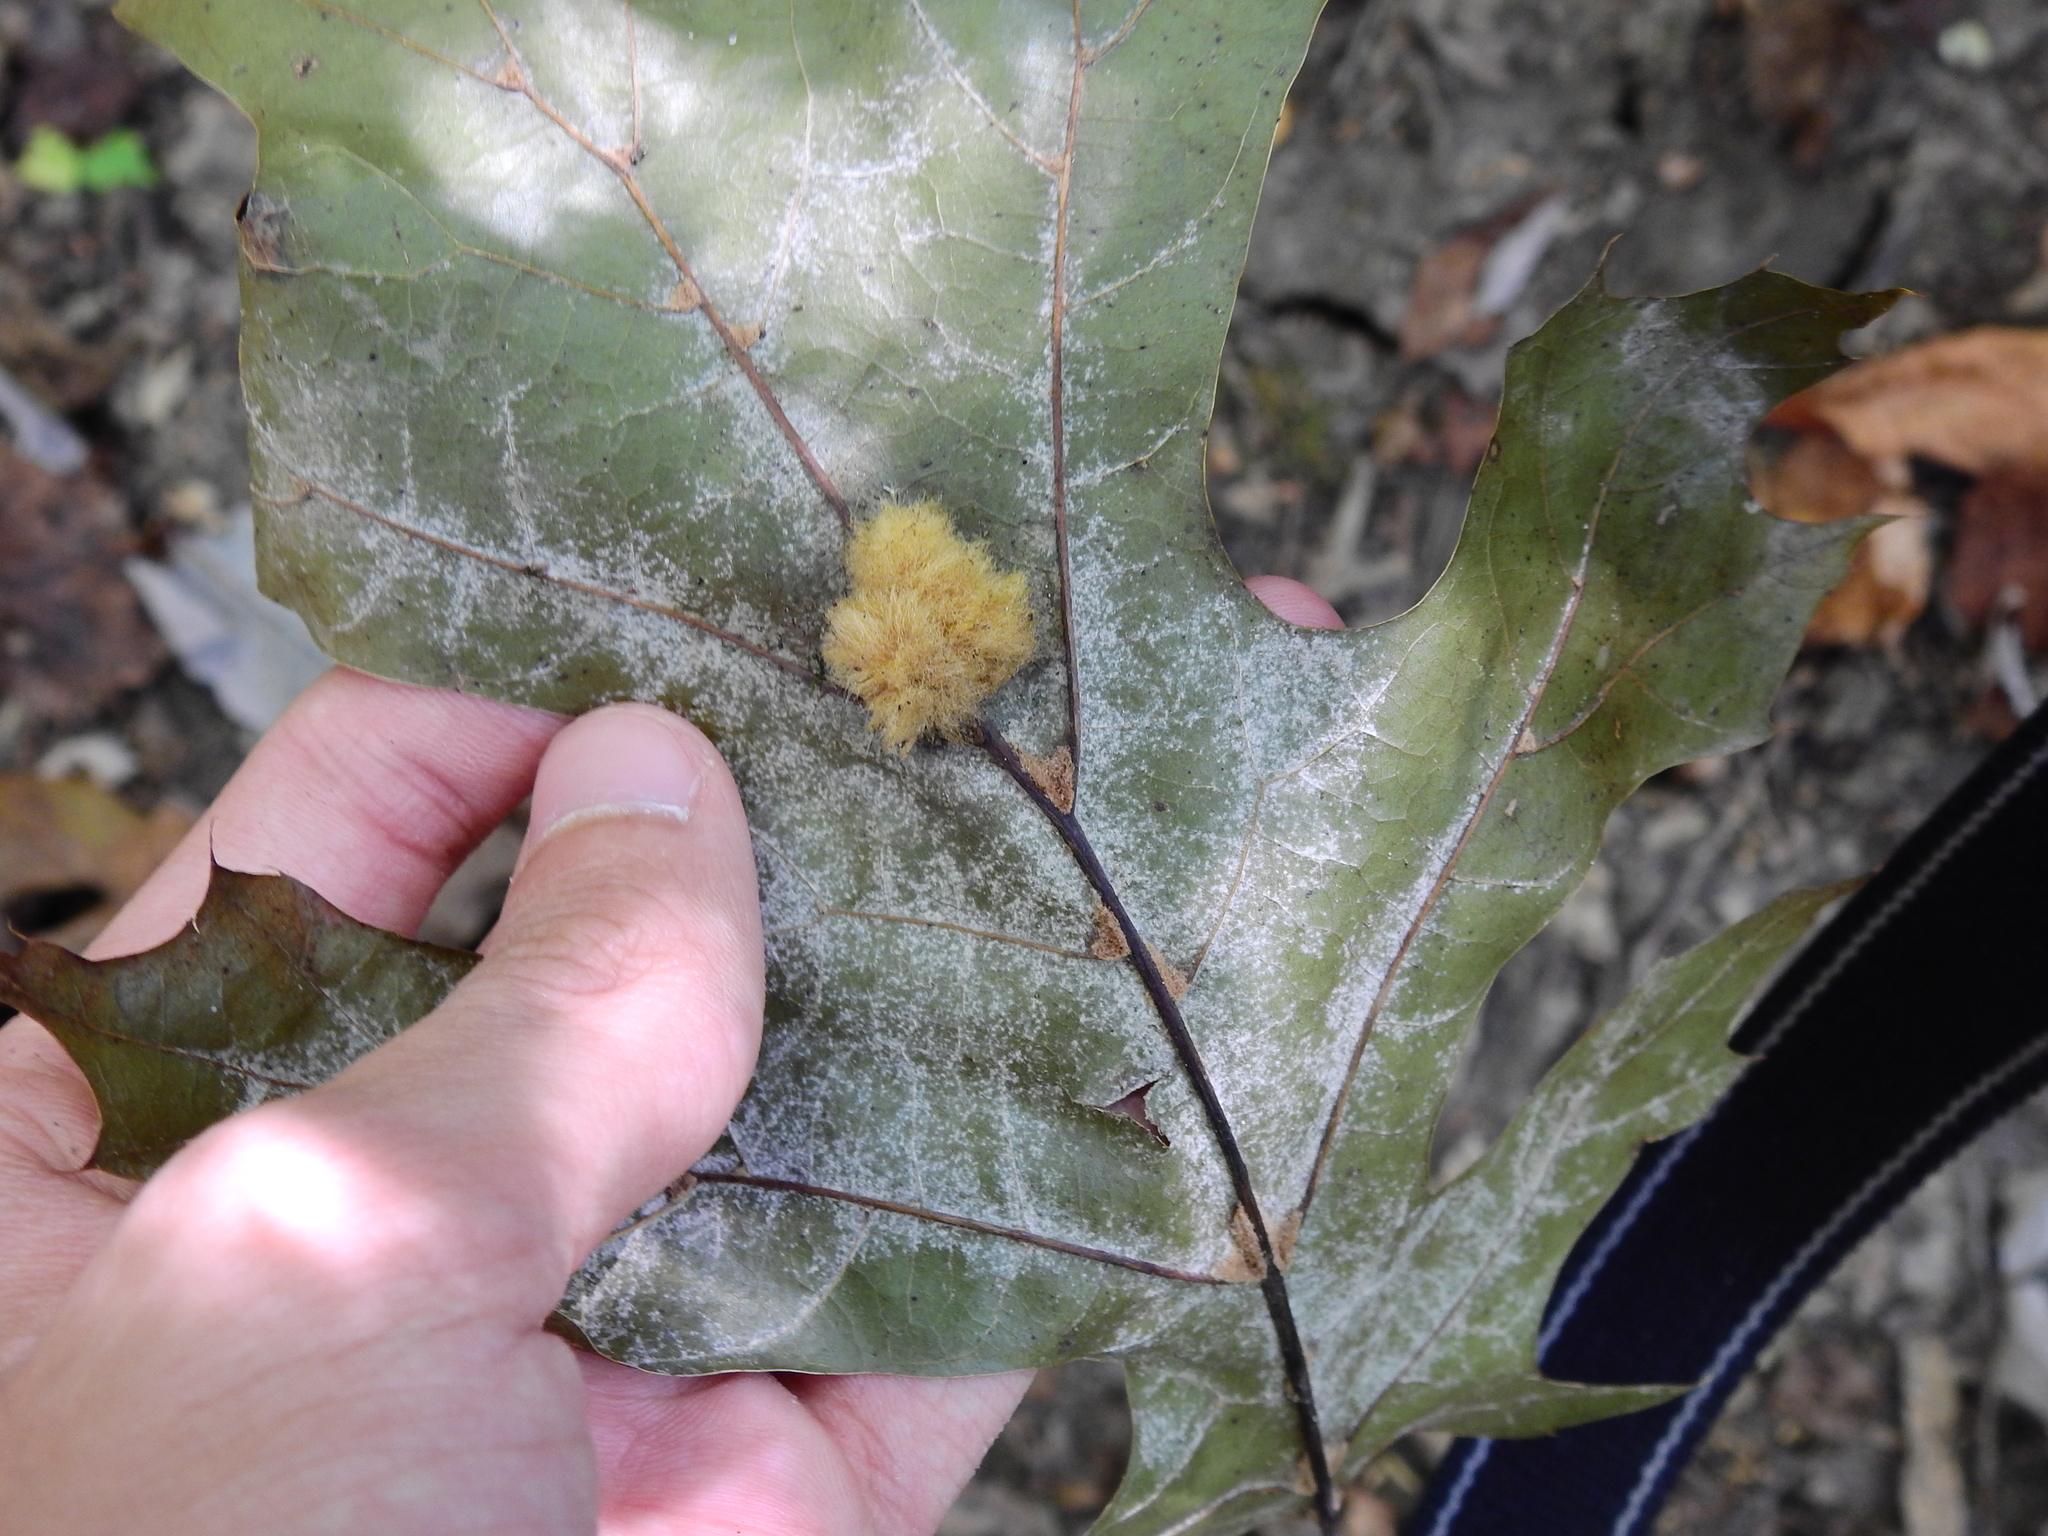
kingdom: Animalia
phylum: Arthropoda
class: Insecta
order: Hymenoptera
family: Cynipidae
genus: Callirhytis
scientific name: Callirhytis
